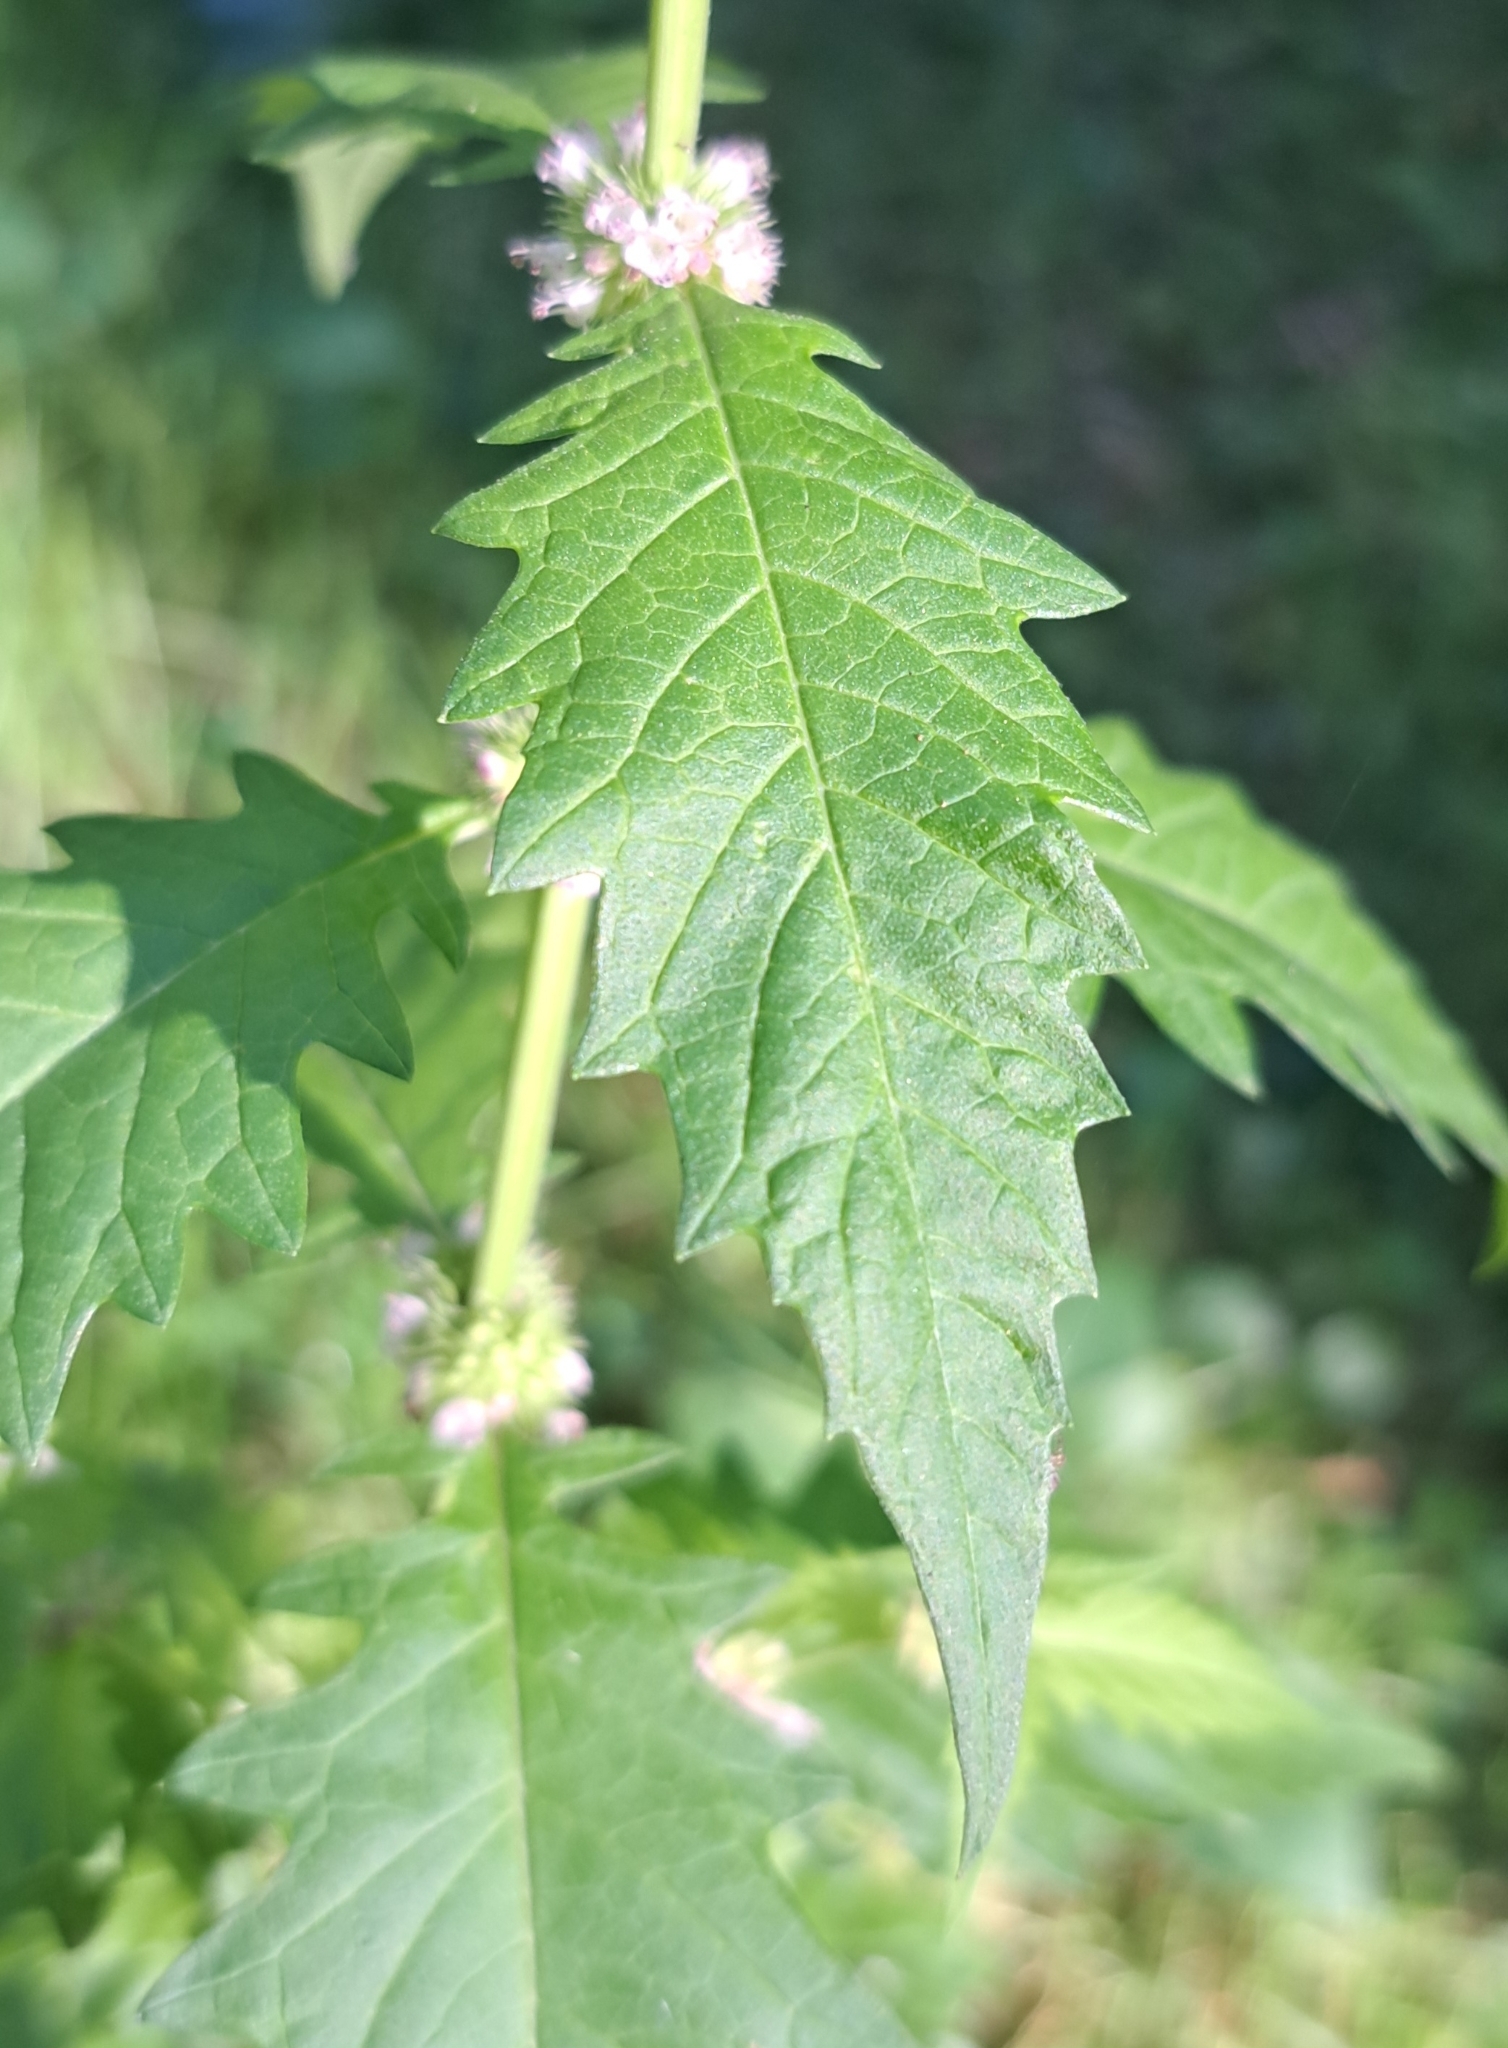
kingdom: Plantae
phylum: Tracheophyta
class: Magnoliopsida
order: Lamiales
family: Lamiaceae
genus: Lycopus
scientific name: Lycopus europaeus
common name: European bugleweed
